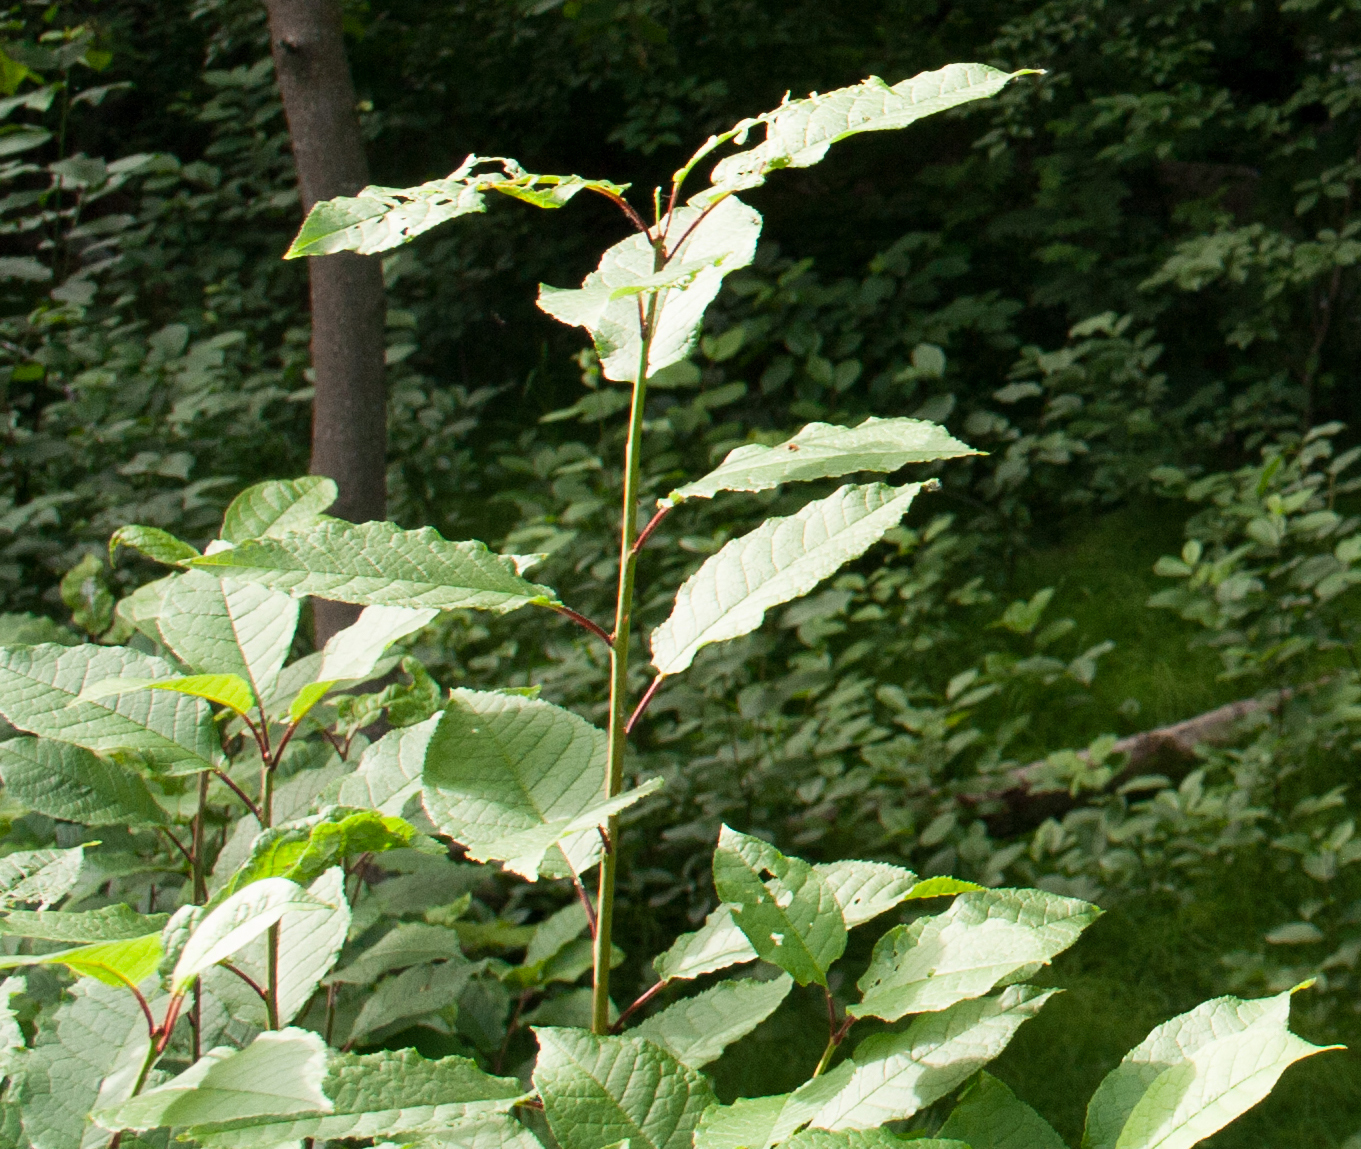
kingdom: Plantae
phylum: Tracheophyta
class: Magnoliopsida
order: Rosales
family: Rosaceae
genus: Prunus
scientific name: Prunus padus
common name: Bird cherry
